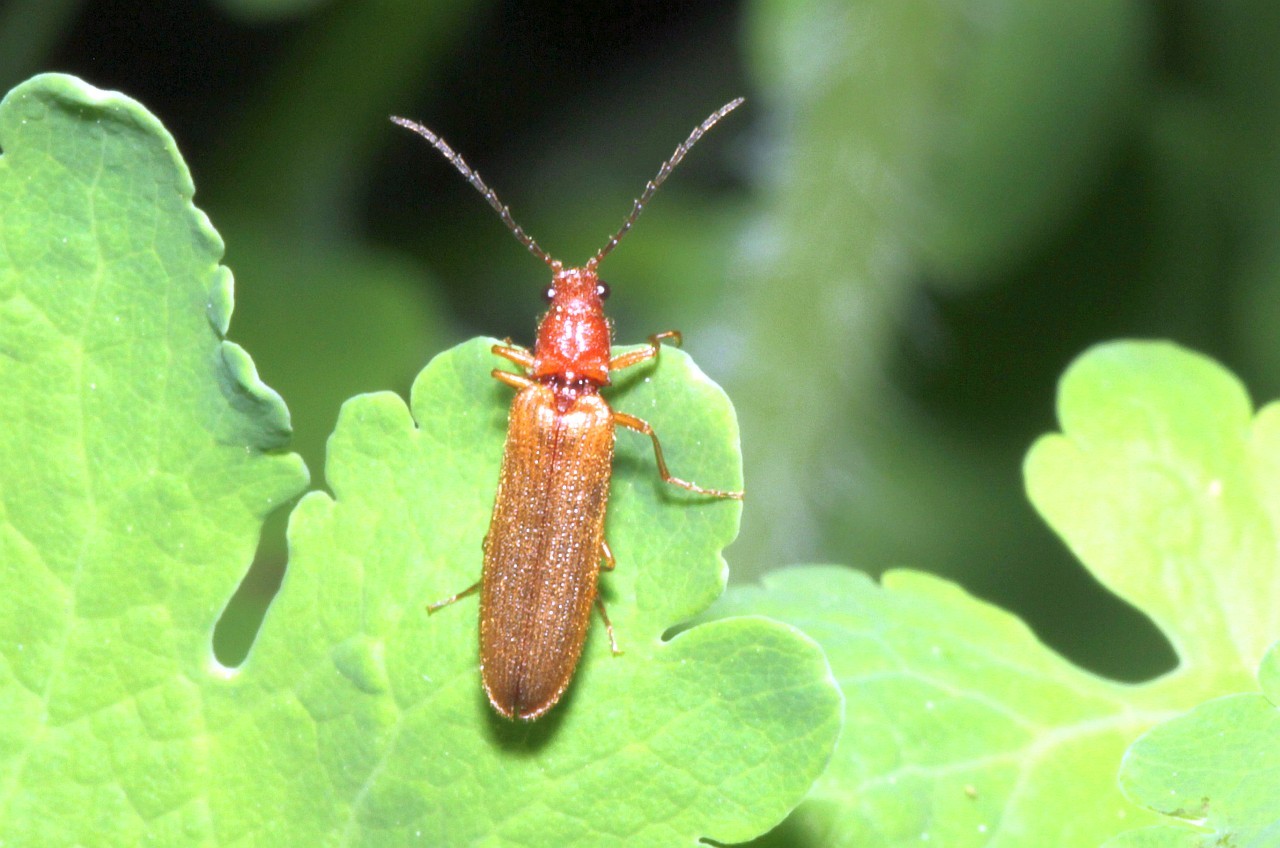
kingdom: Animalia
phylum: Arthropoda
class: Insecta
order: Coleoptera
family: Elateridae
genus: Denticollis
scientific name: Denticollis linearis
